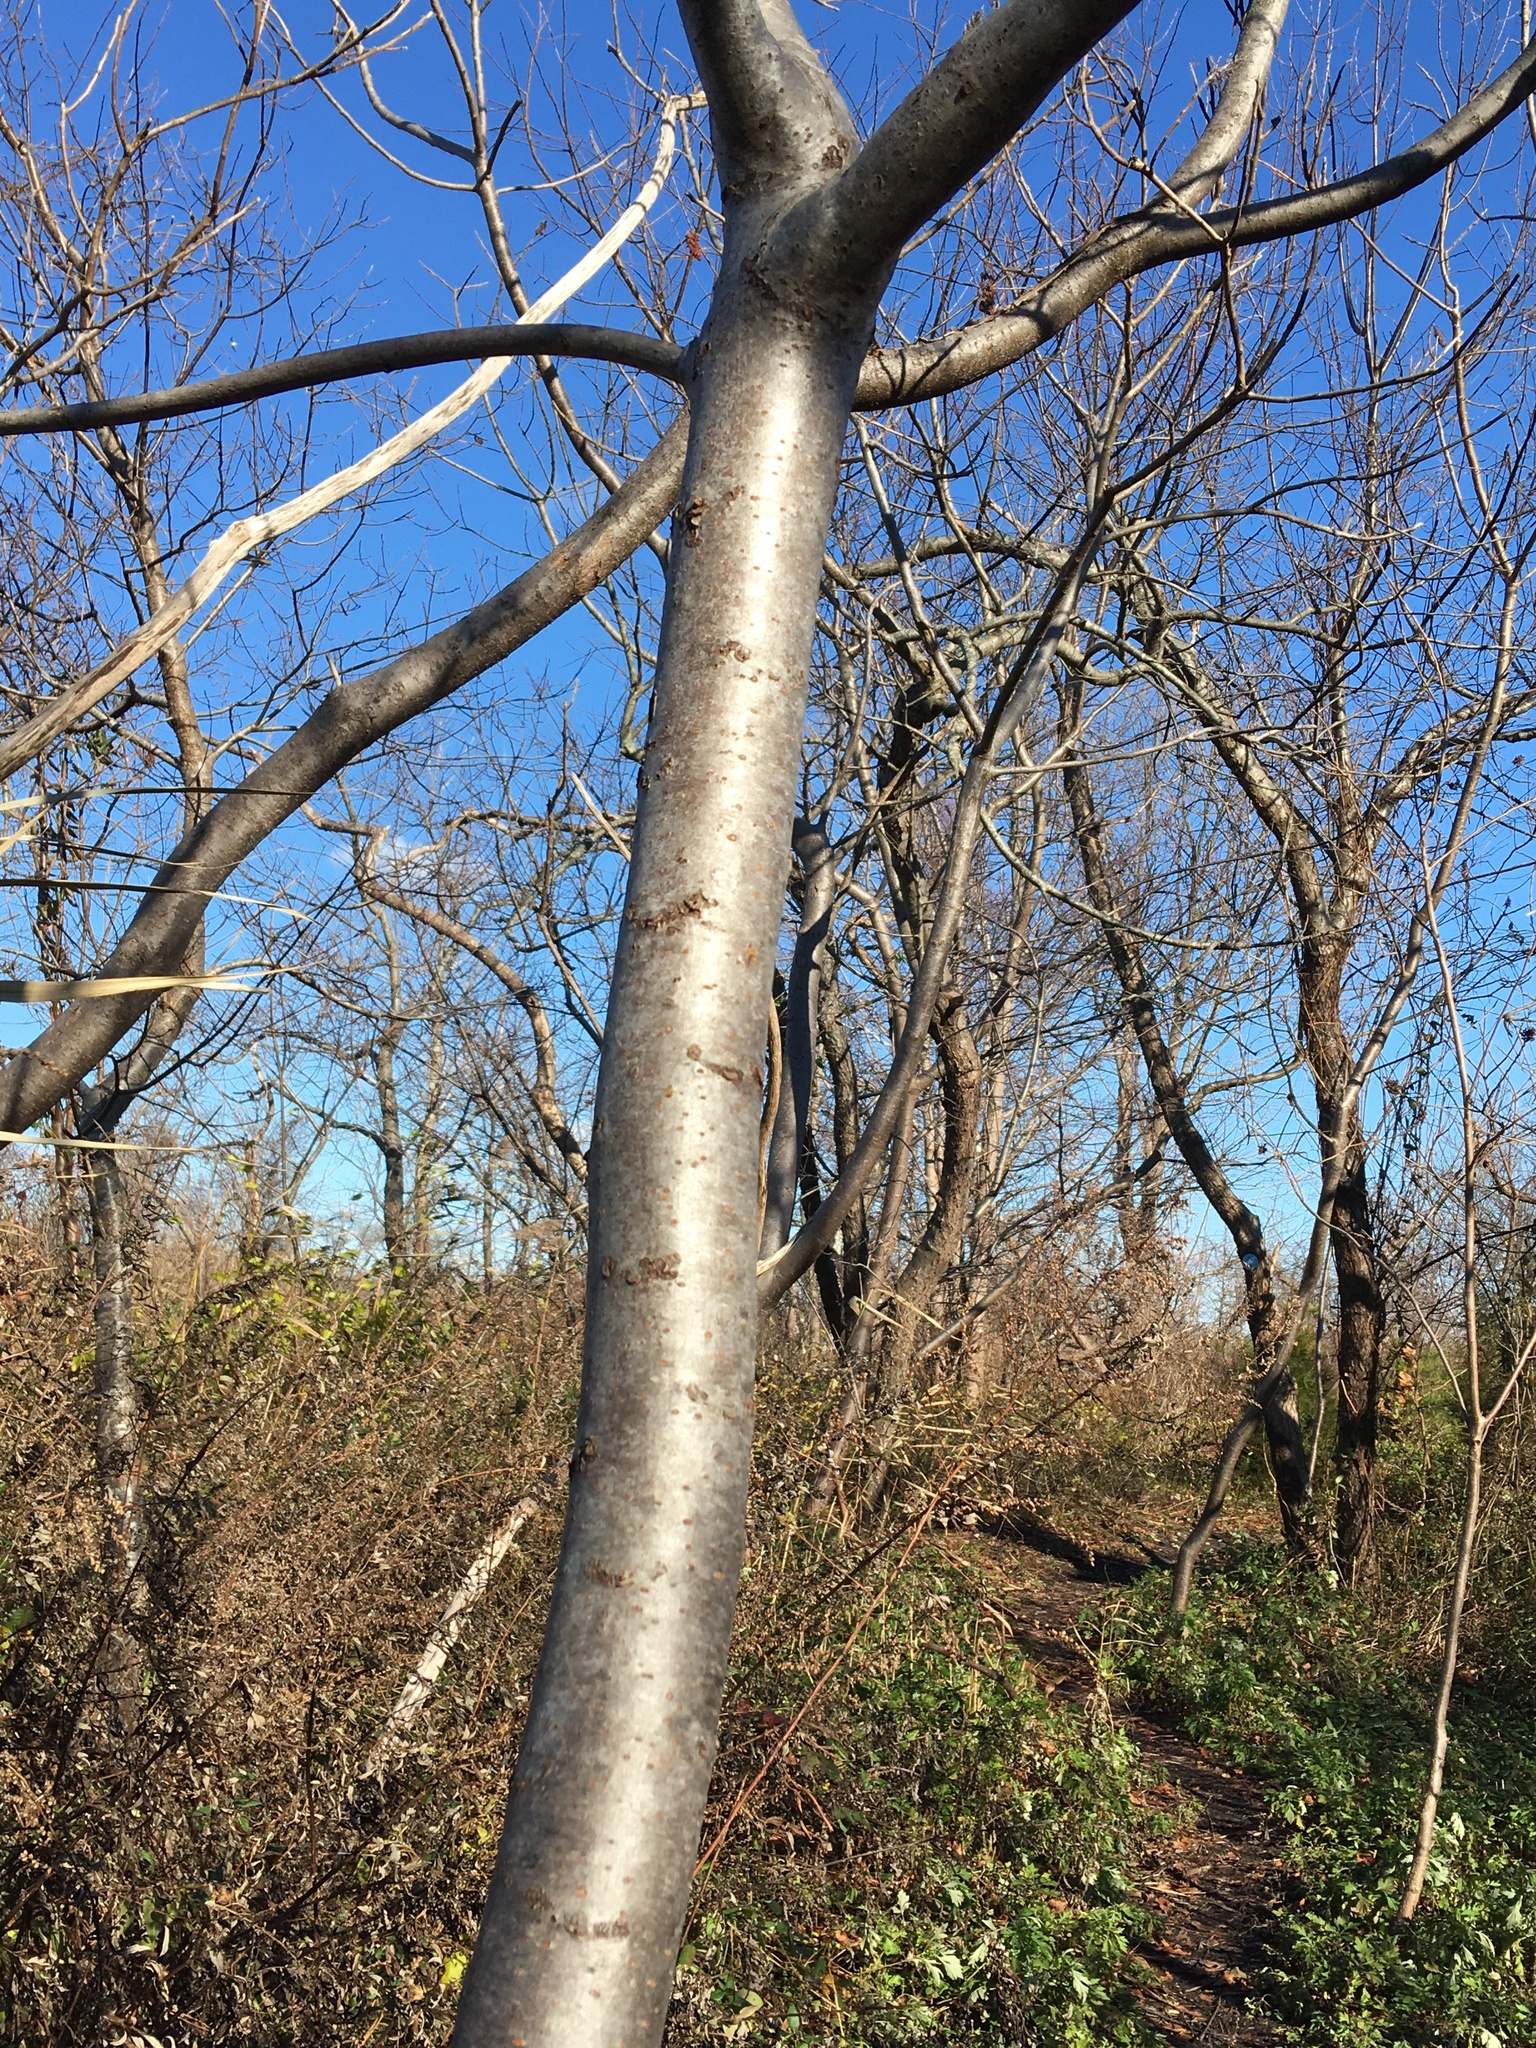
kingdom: Plantae
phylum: Tracheophyta
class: Magnoliopsida
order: Sapindales
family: Anacardiaceae
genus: Rhus
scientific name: Rhus copallina
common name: Shining sumac
